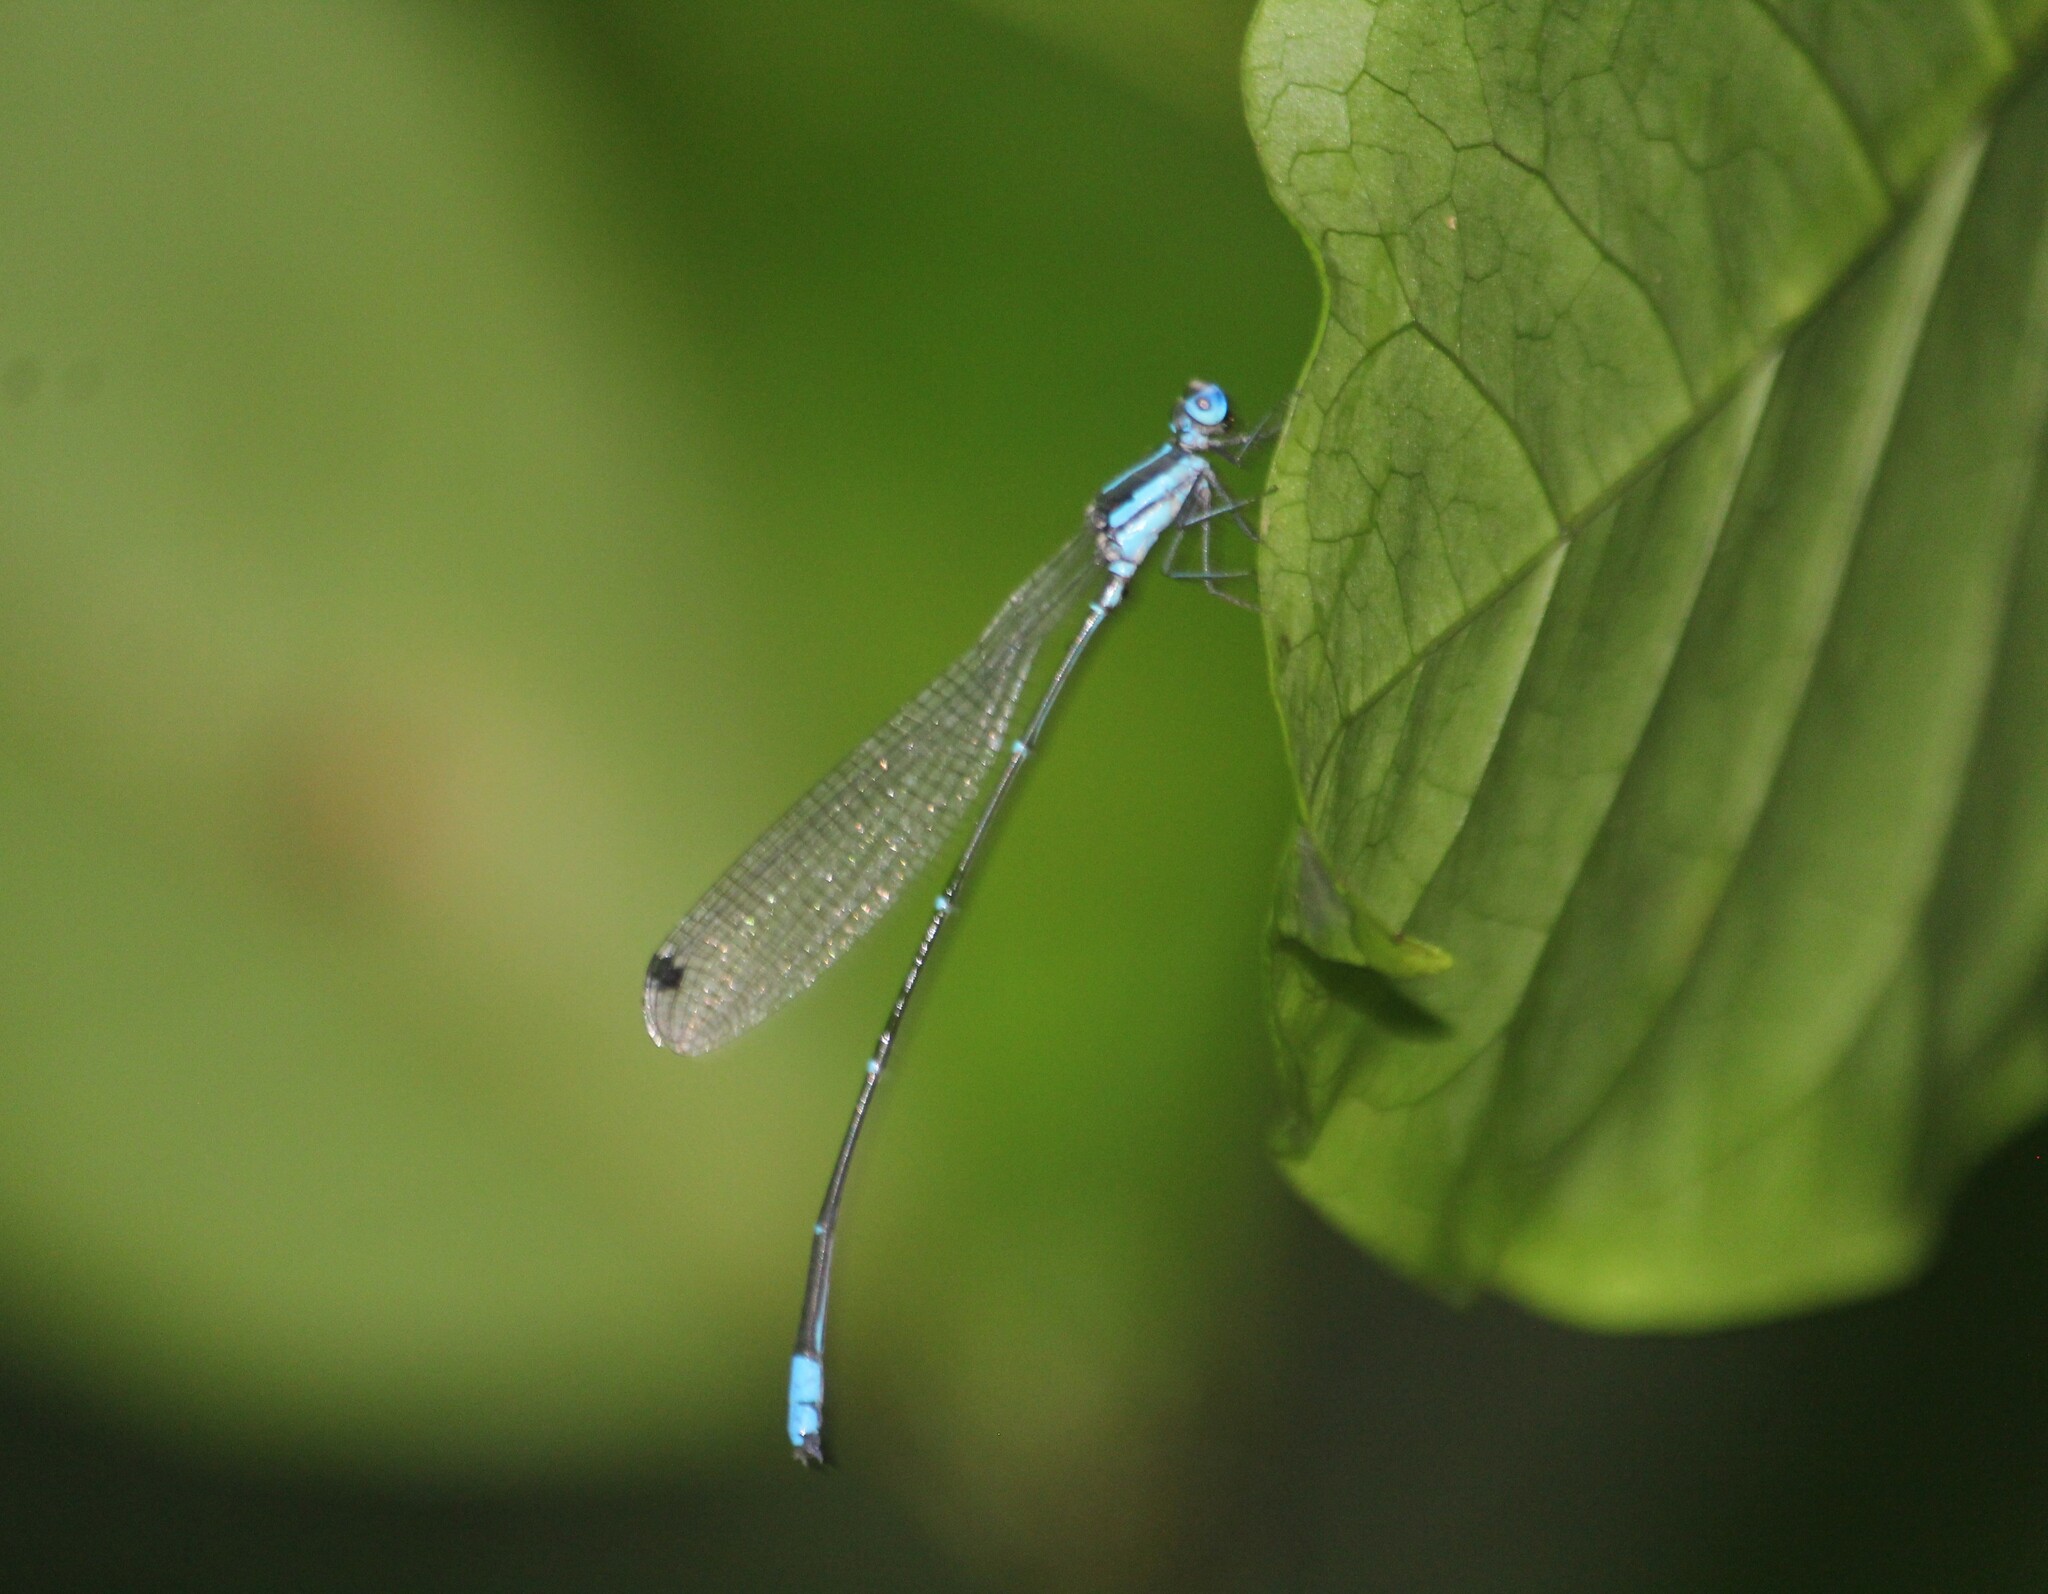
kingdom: Animalia
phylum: Arthropoda
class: Insecta
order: Odonata
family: Platycnemididae
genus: Caconeura
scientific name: Caconeura ramburi
